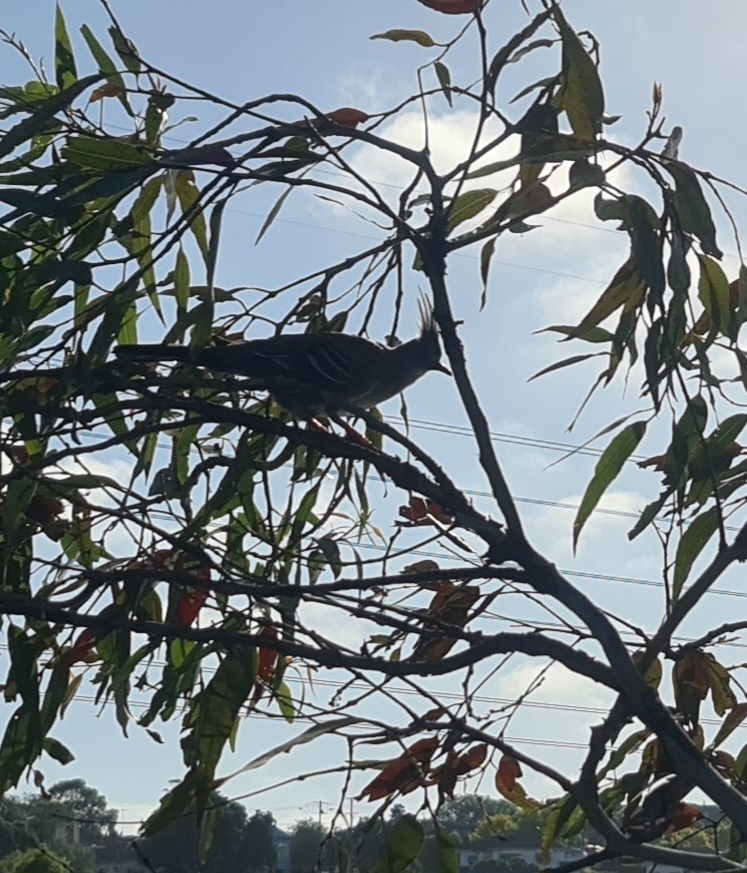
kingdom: Animalia
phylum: Chordata
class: Aves
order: Columbiformes
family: Columbidae
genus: Ocyphaps
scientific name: Ocyphaps lophotes
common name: Crested pigeon
